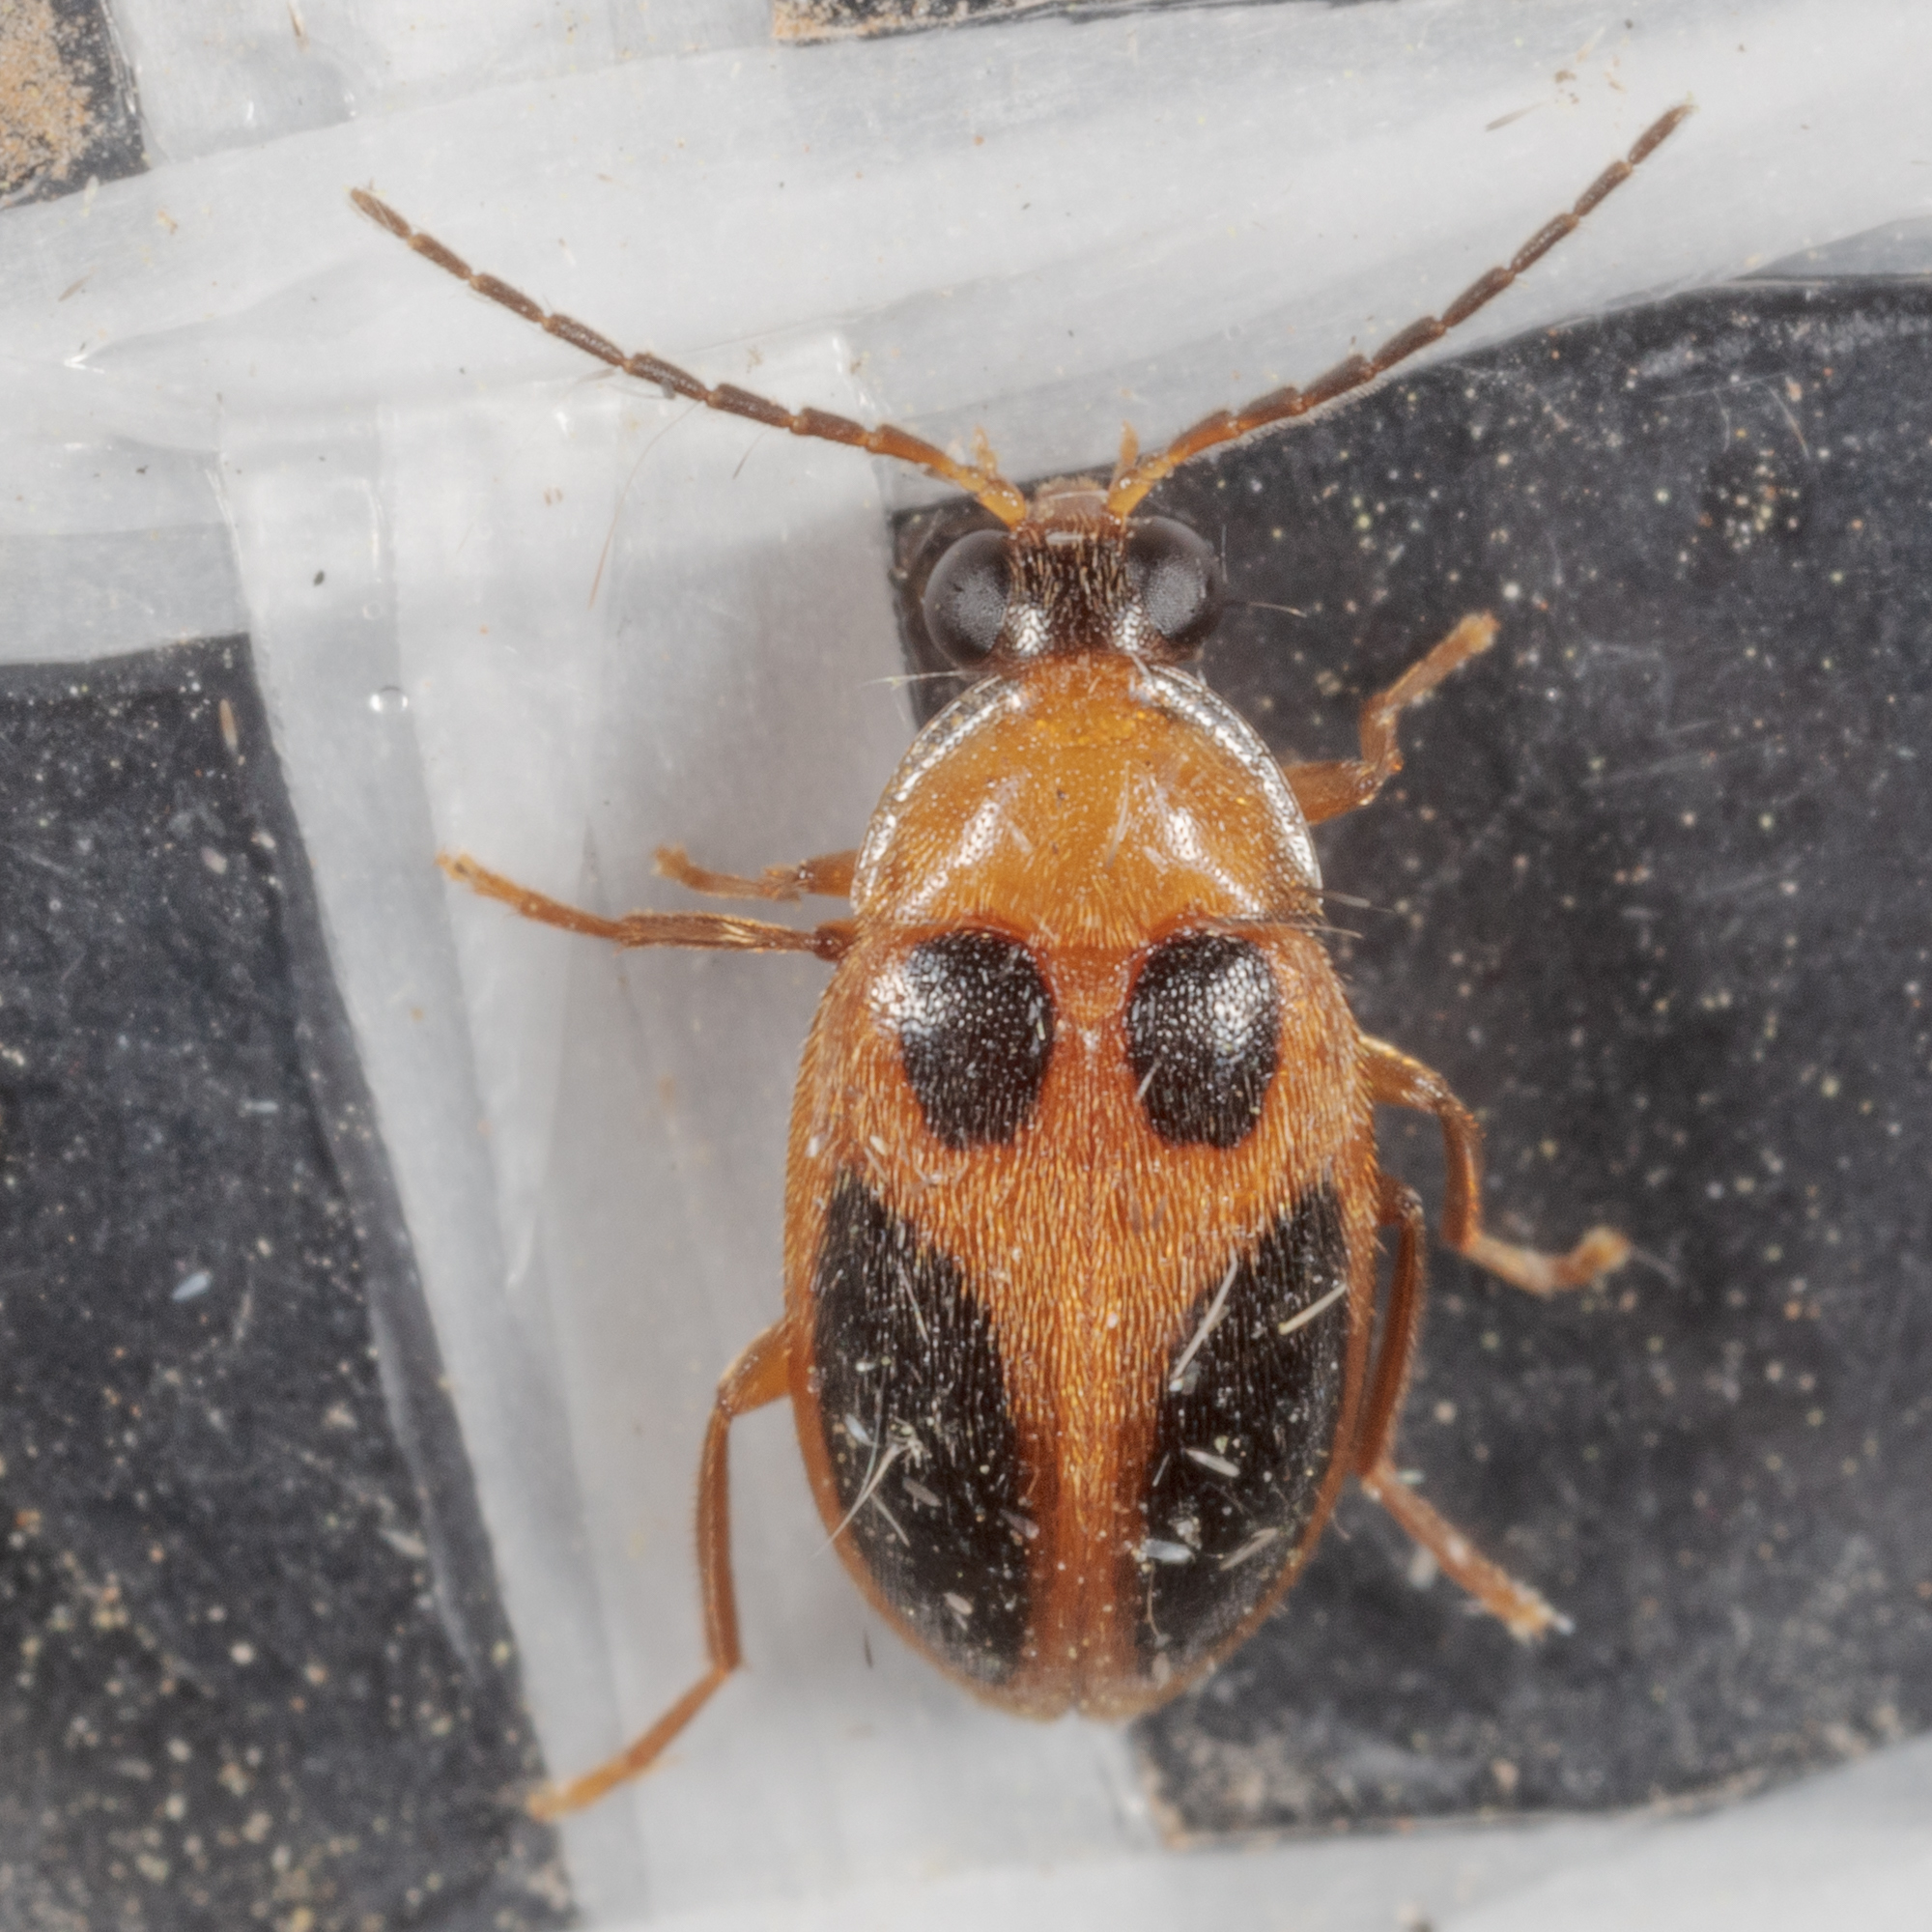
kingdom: Animalia
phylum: Arthropoda
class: Insecta
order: Coleoptera
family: Scirtidae
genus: Sacodes
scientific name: Sacodes pulchella
